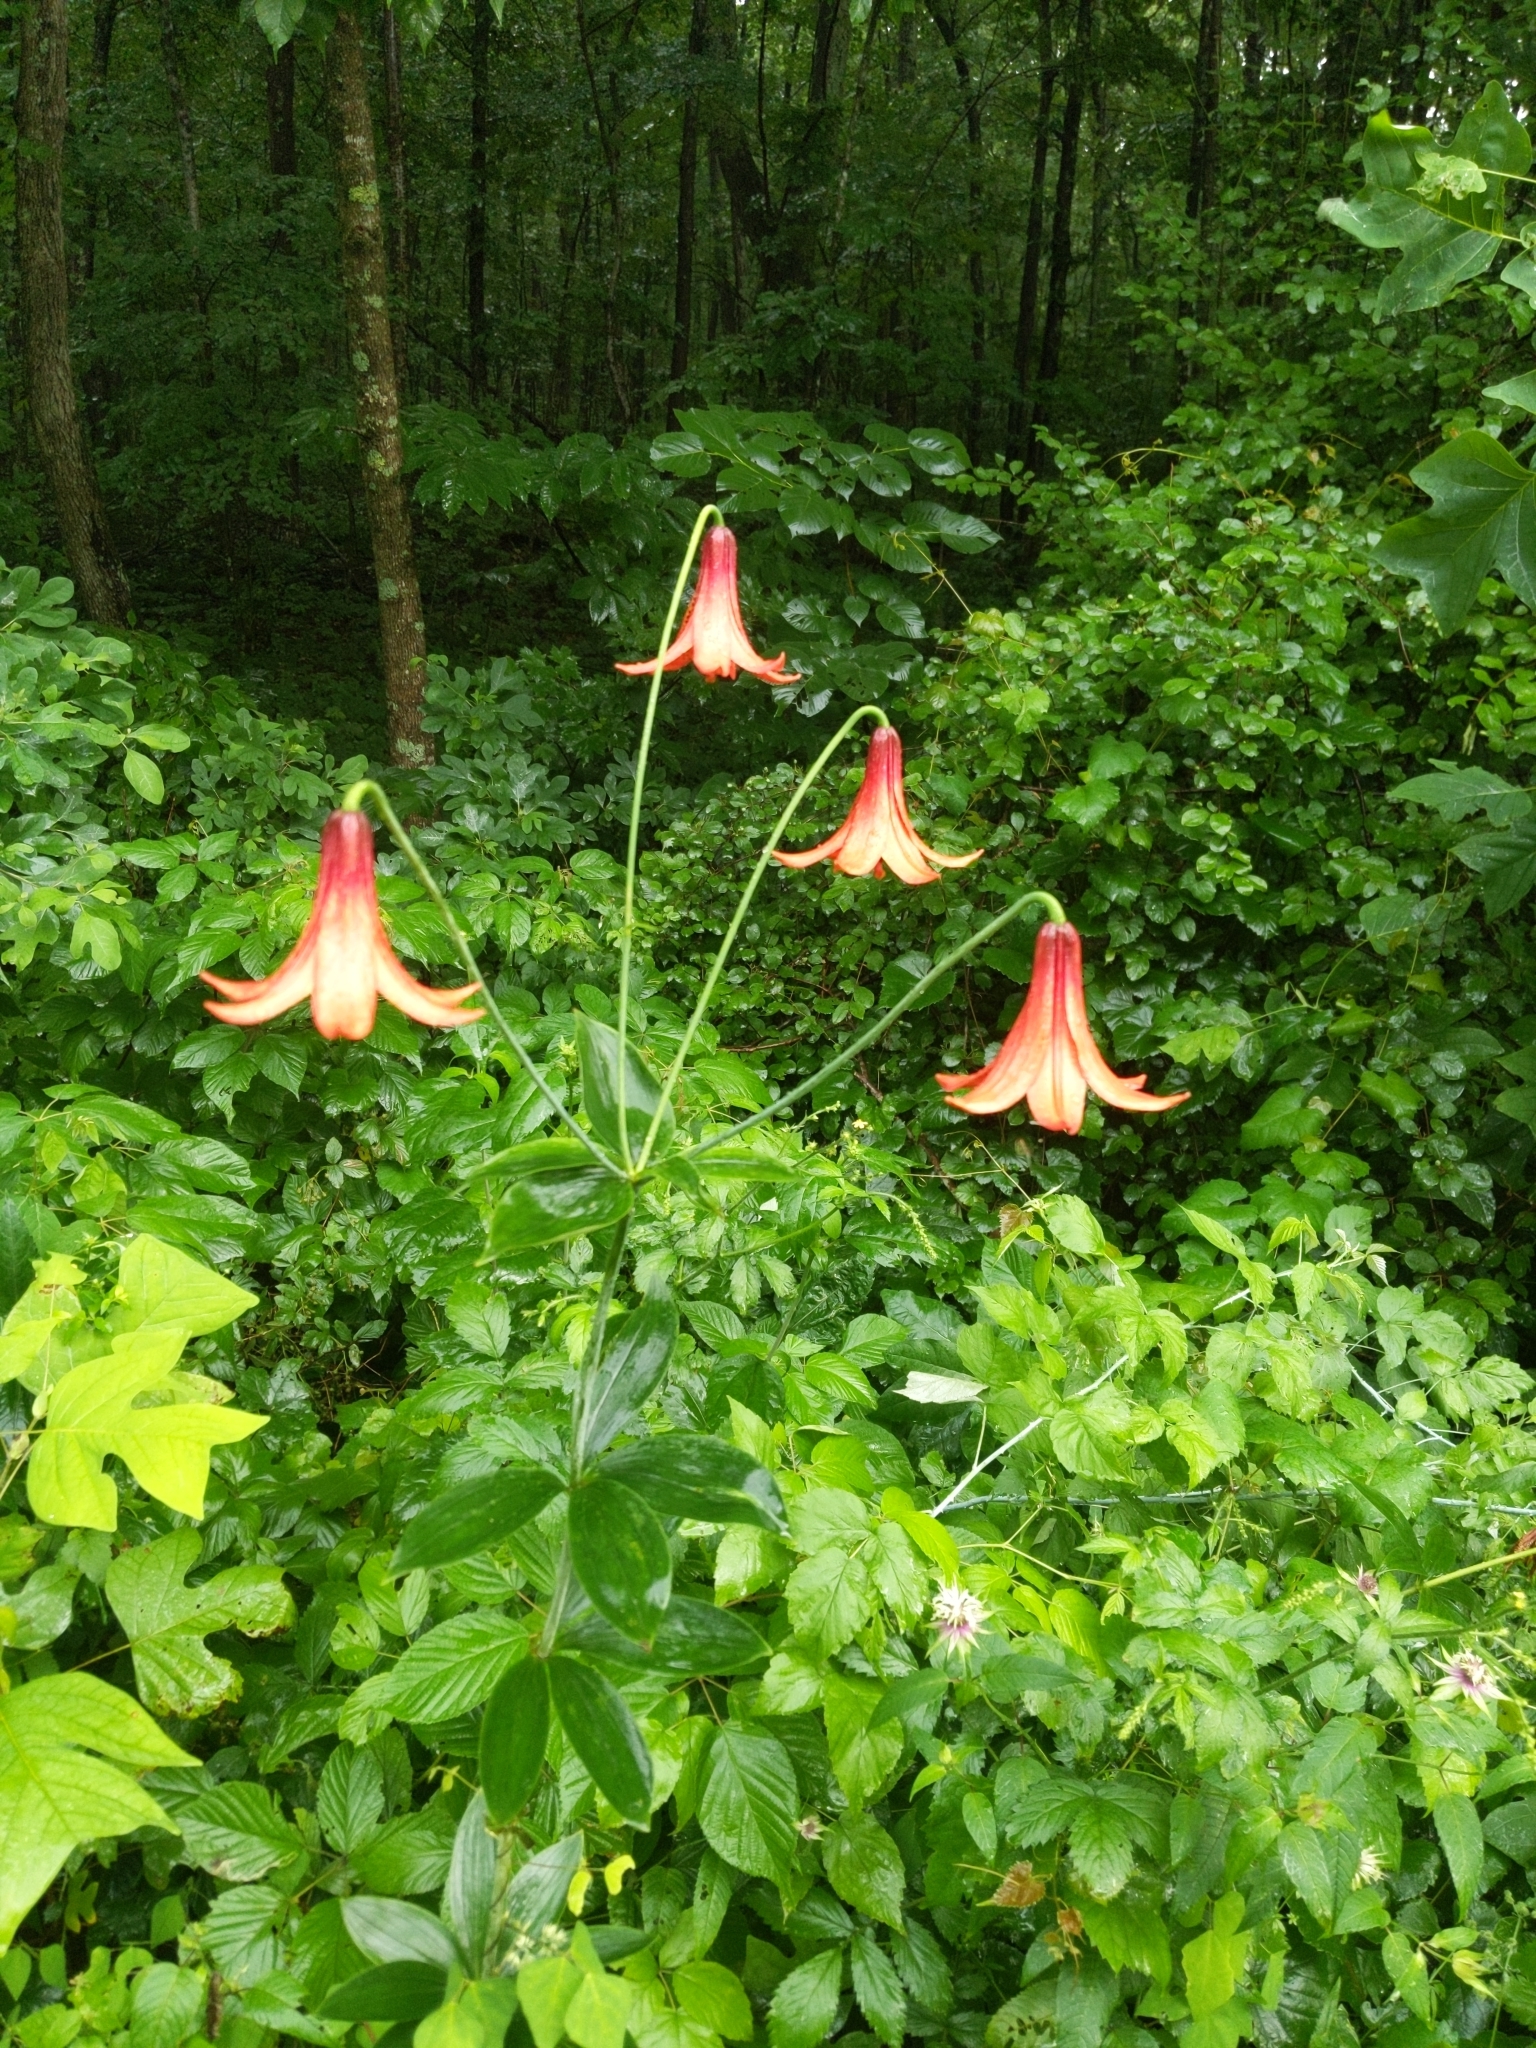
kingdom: Plantae
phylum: Tracheophyta
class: Liliopsida
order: Liliales
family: Liliaceae
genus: Lilium
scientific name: Lilium canadense
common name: Canada lily
